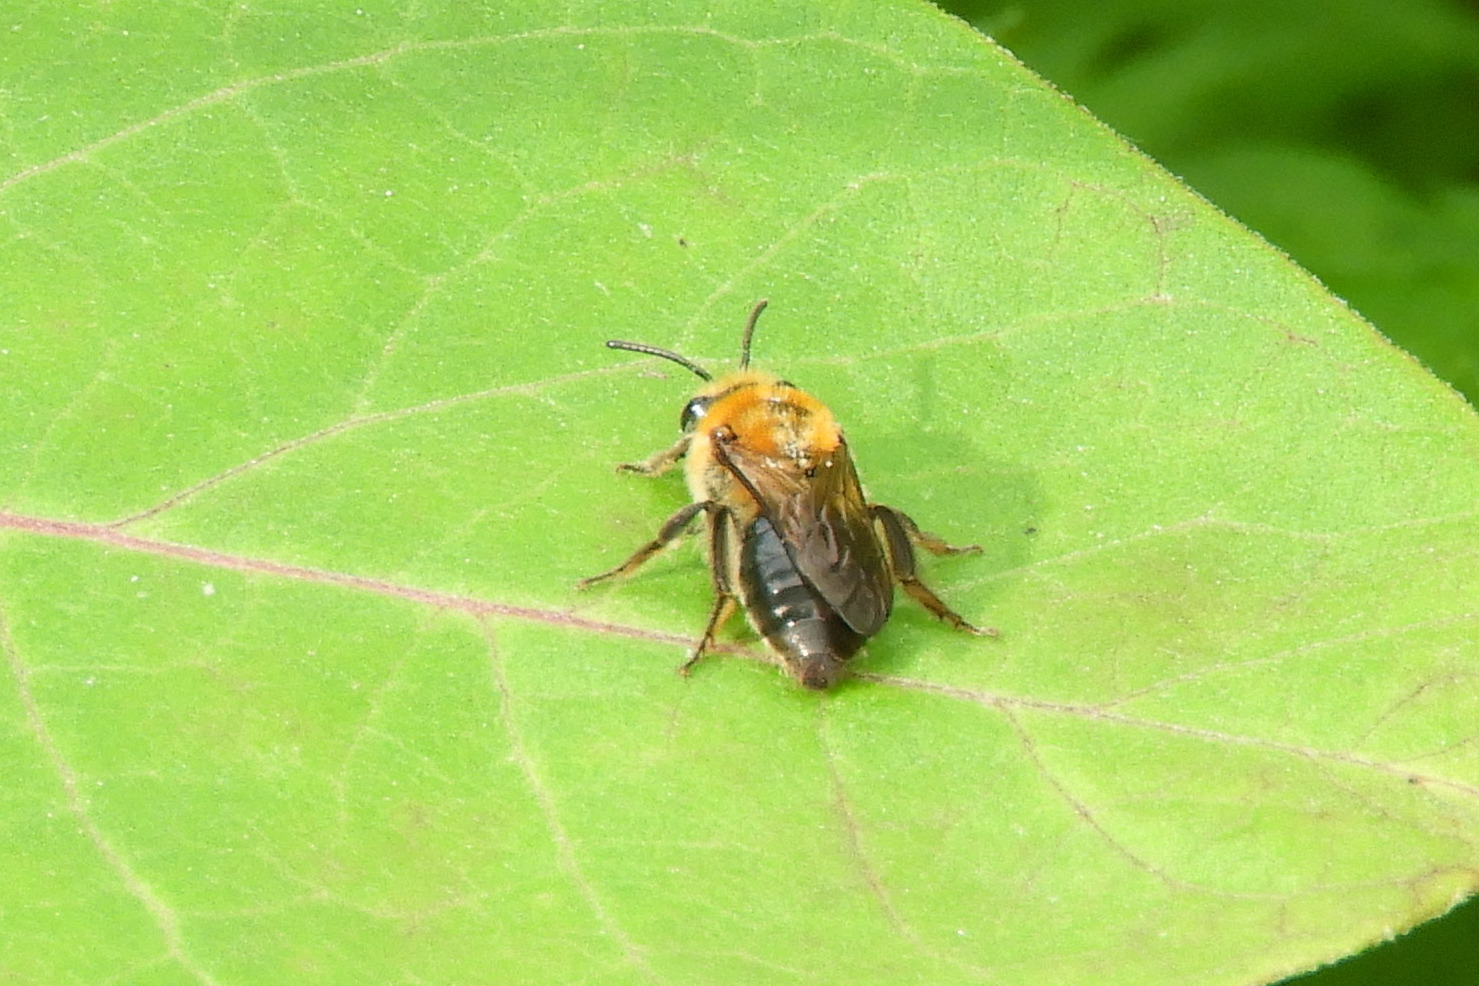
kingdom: Animalia
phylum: Arthropoda
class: Insecta
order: Hymenoptera
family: Colletidae
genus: Colletes
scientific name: Colletes thoracicus
